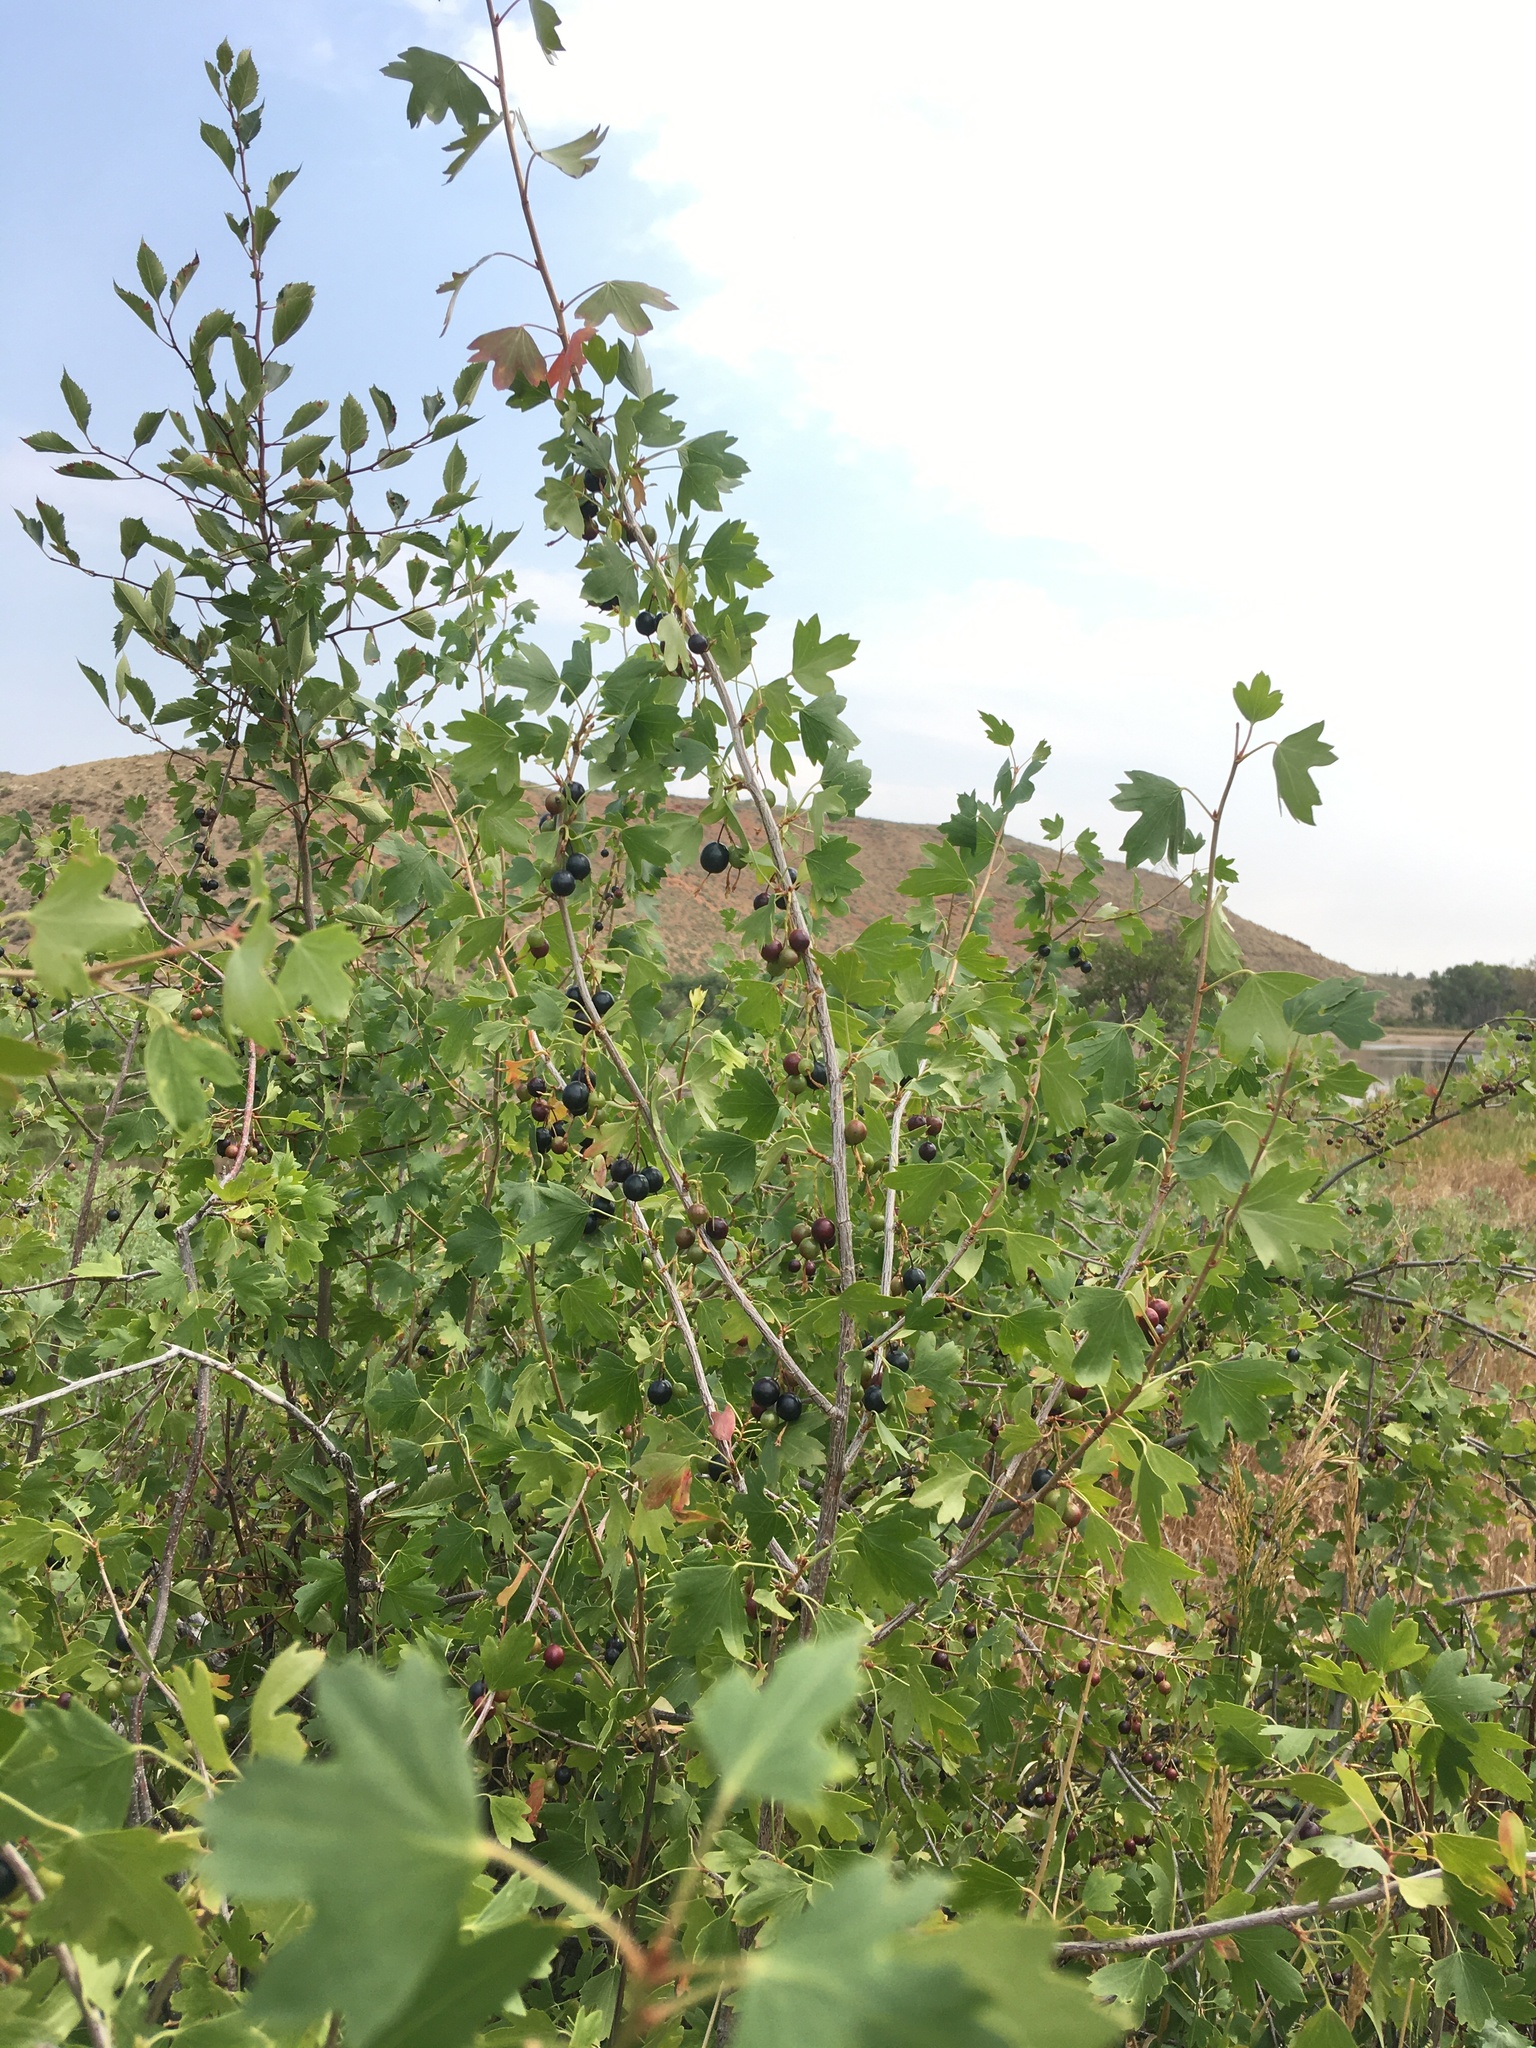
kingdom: Plantae
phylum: Tracheophyta
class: Magnoliopsida
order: Saxifragales
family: Grossulariaceae
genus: Ribes
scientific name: Ribes aureum
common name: Golden currant
